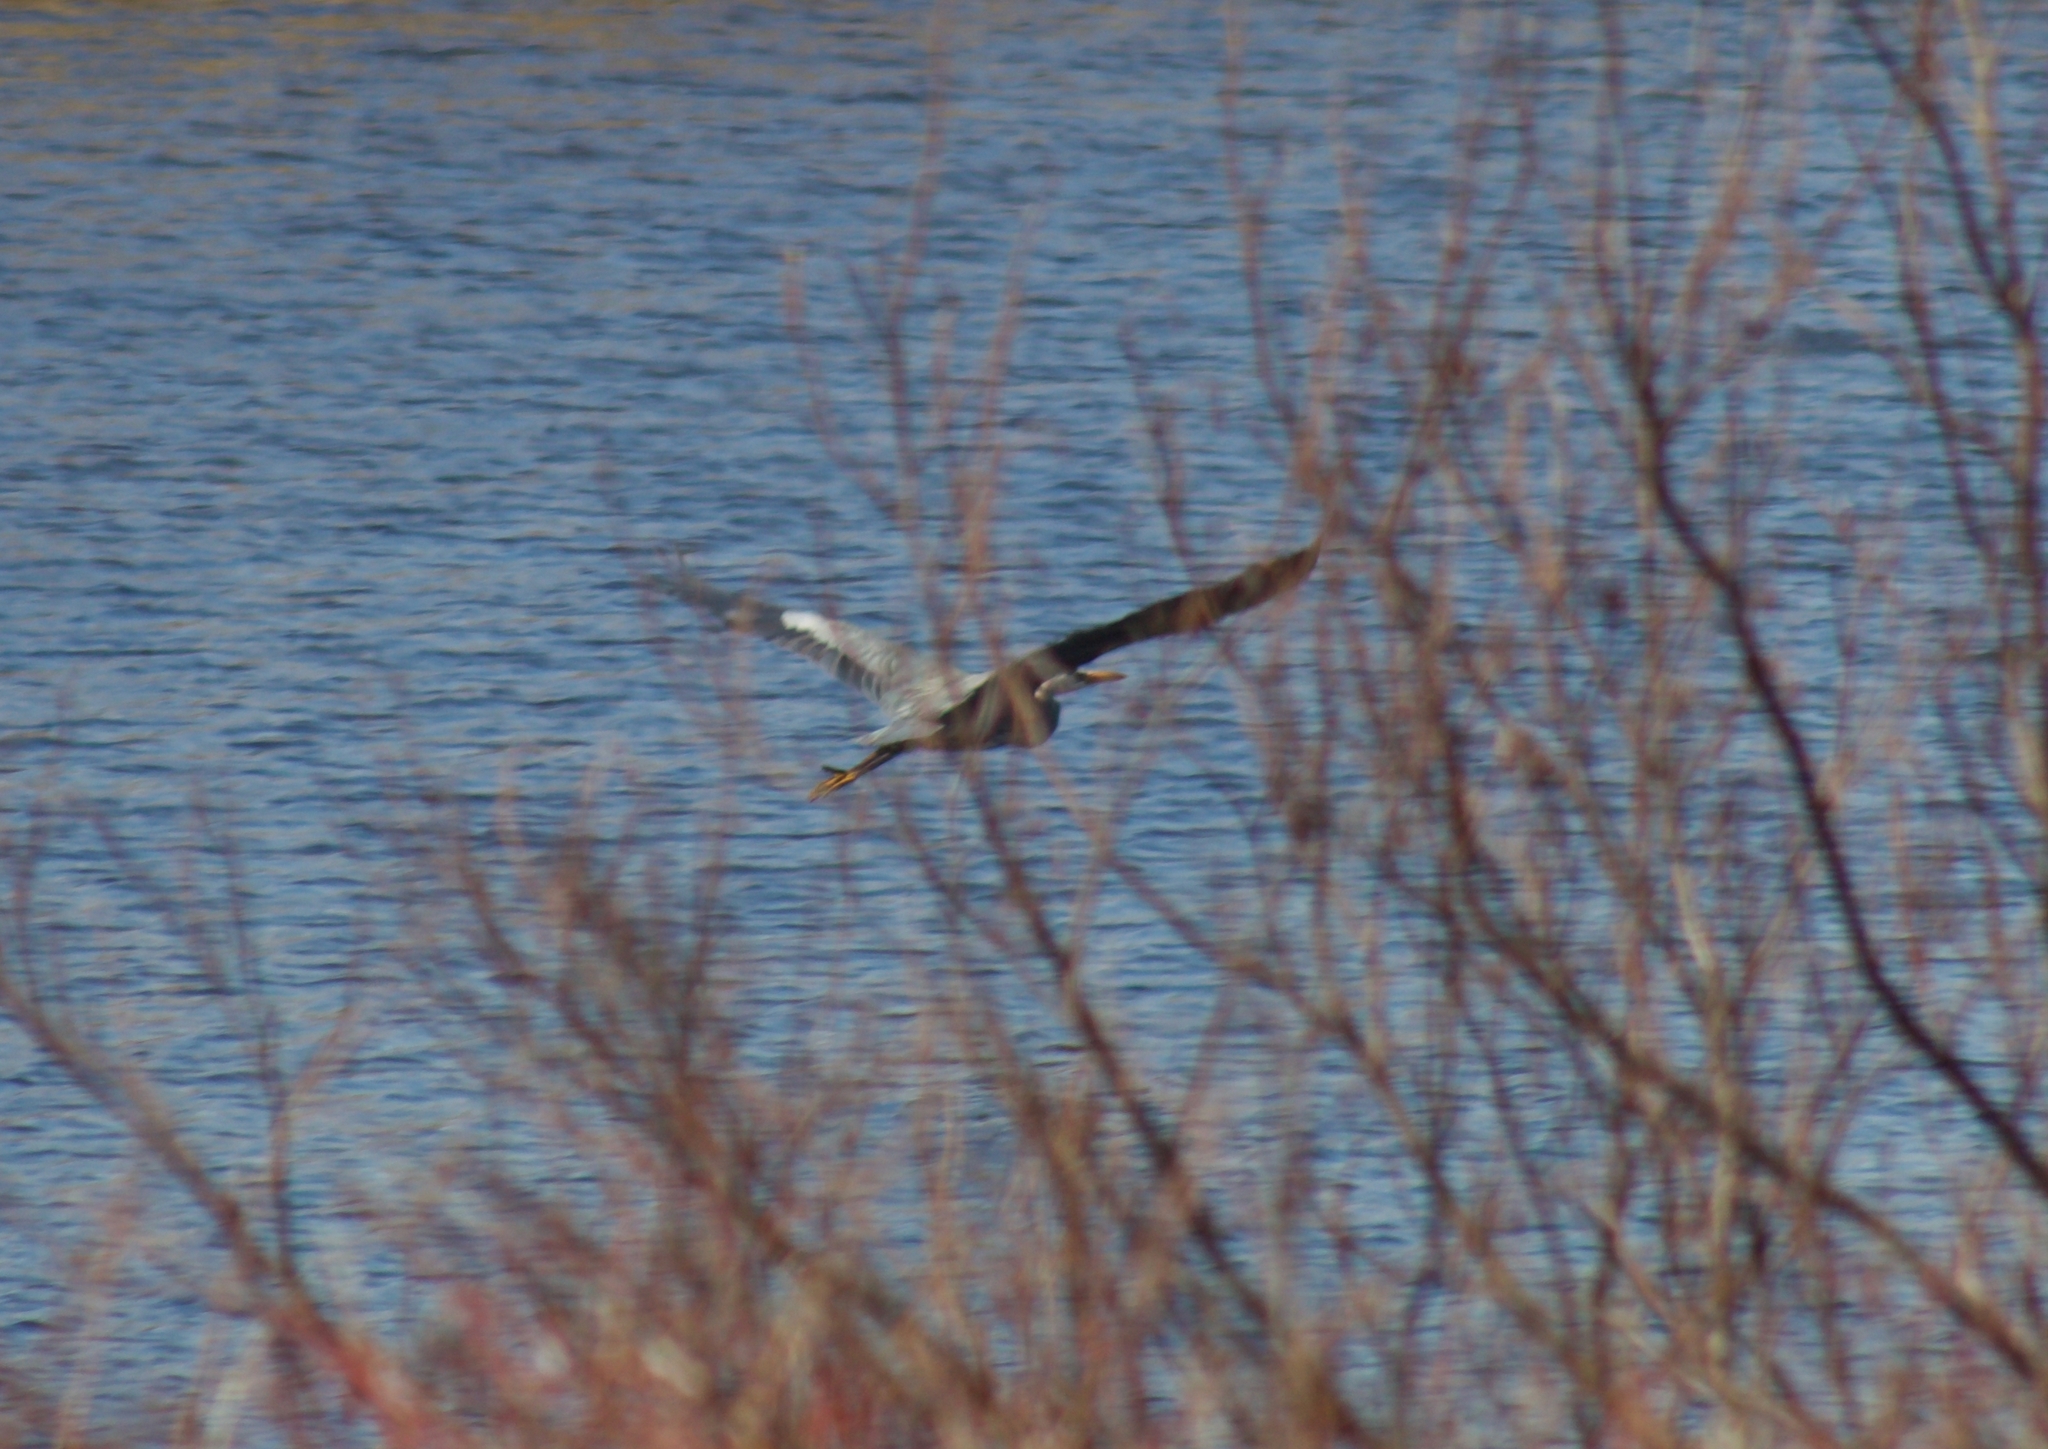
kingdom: Animalia
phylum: Chordata
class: Aves
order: Pelecaniformes
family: Ardeidae
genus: Ardea
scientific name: Ardea herodias
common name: Great blue heron
